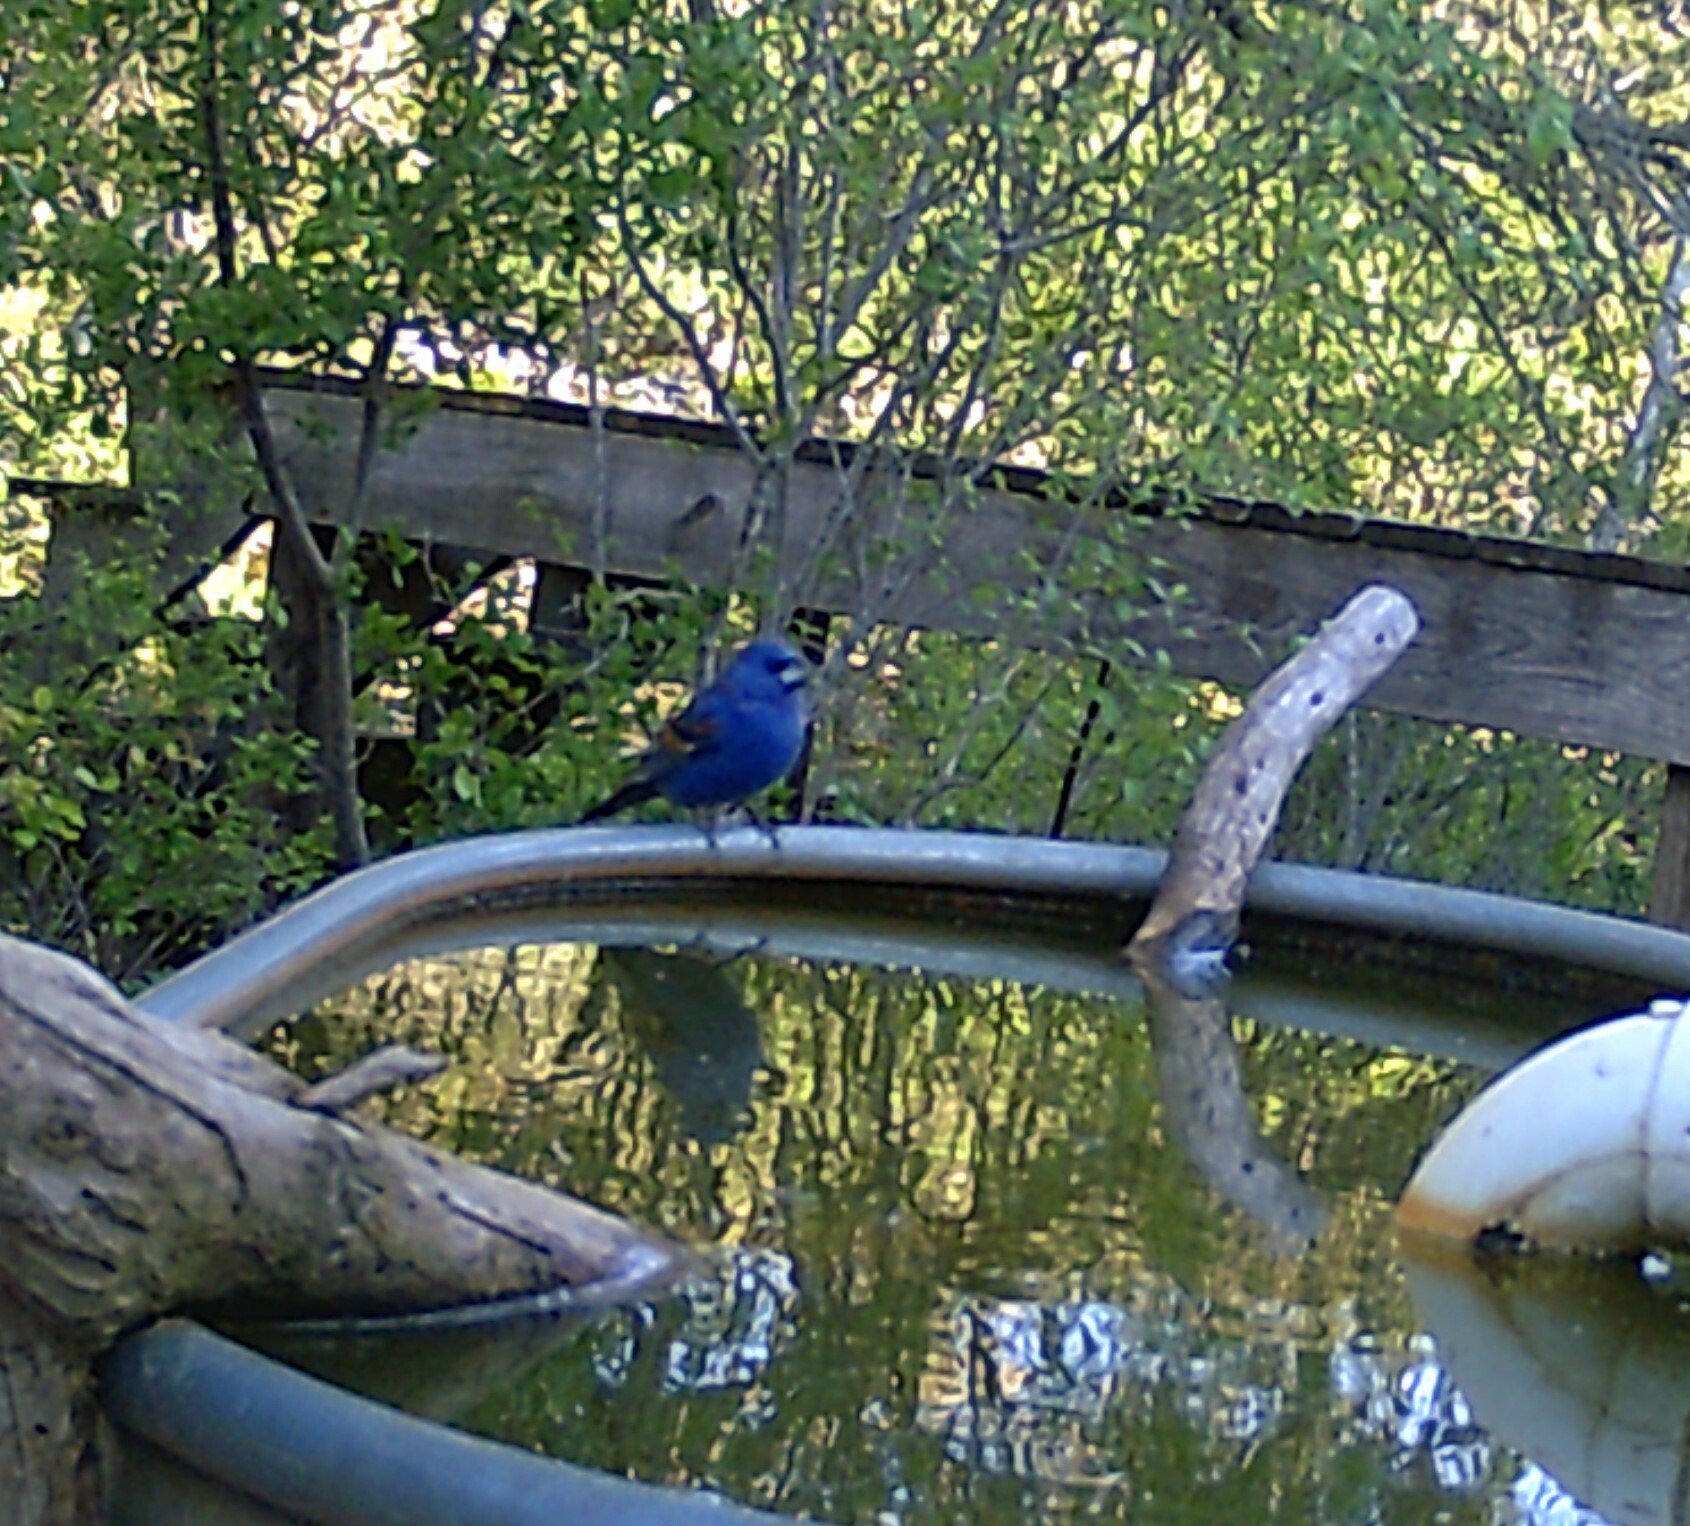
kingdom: Animalia
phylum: Chordata
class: Aves
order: Passeriformes
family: Cardinalidae
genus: Passerina
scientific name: Passerina caerulea
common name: Blue grosbeak
